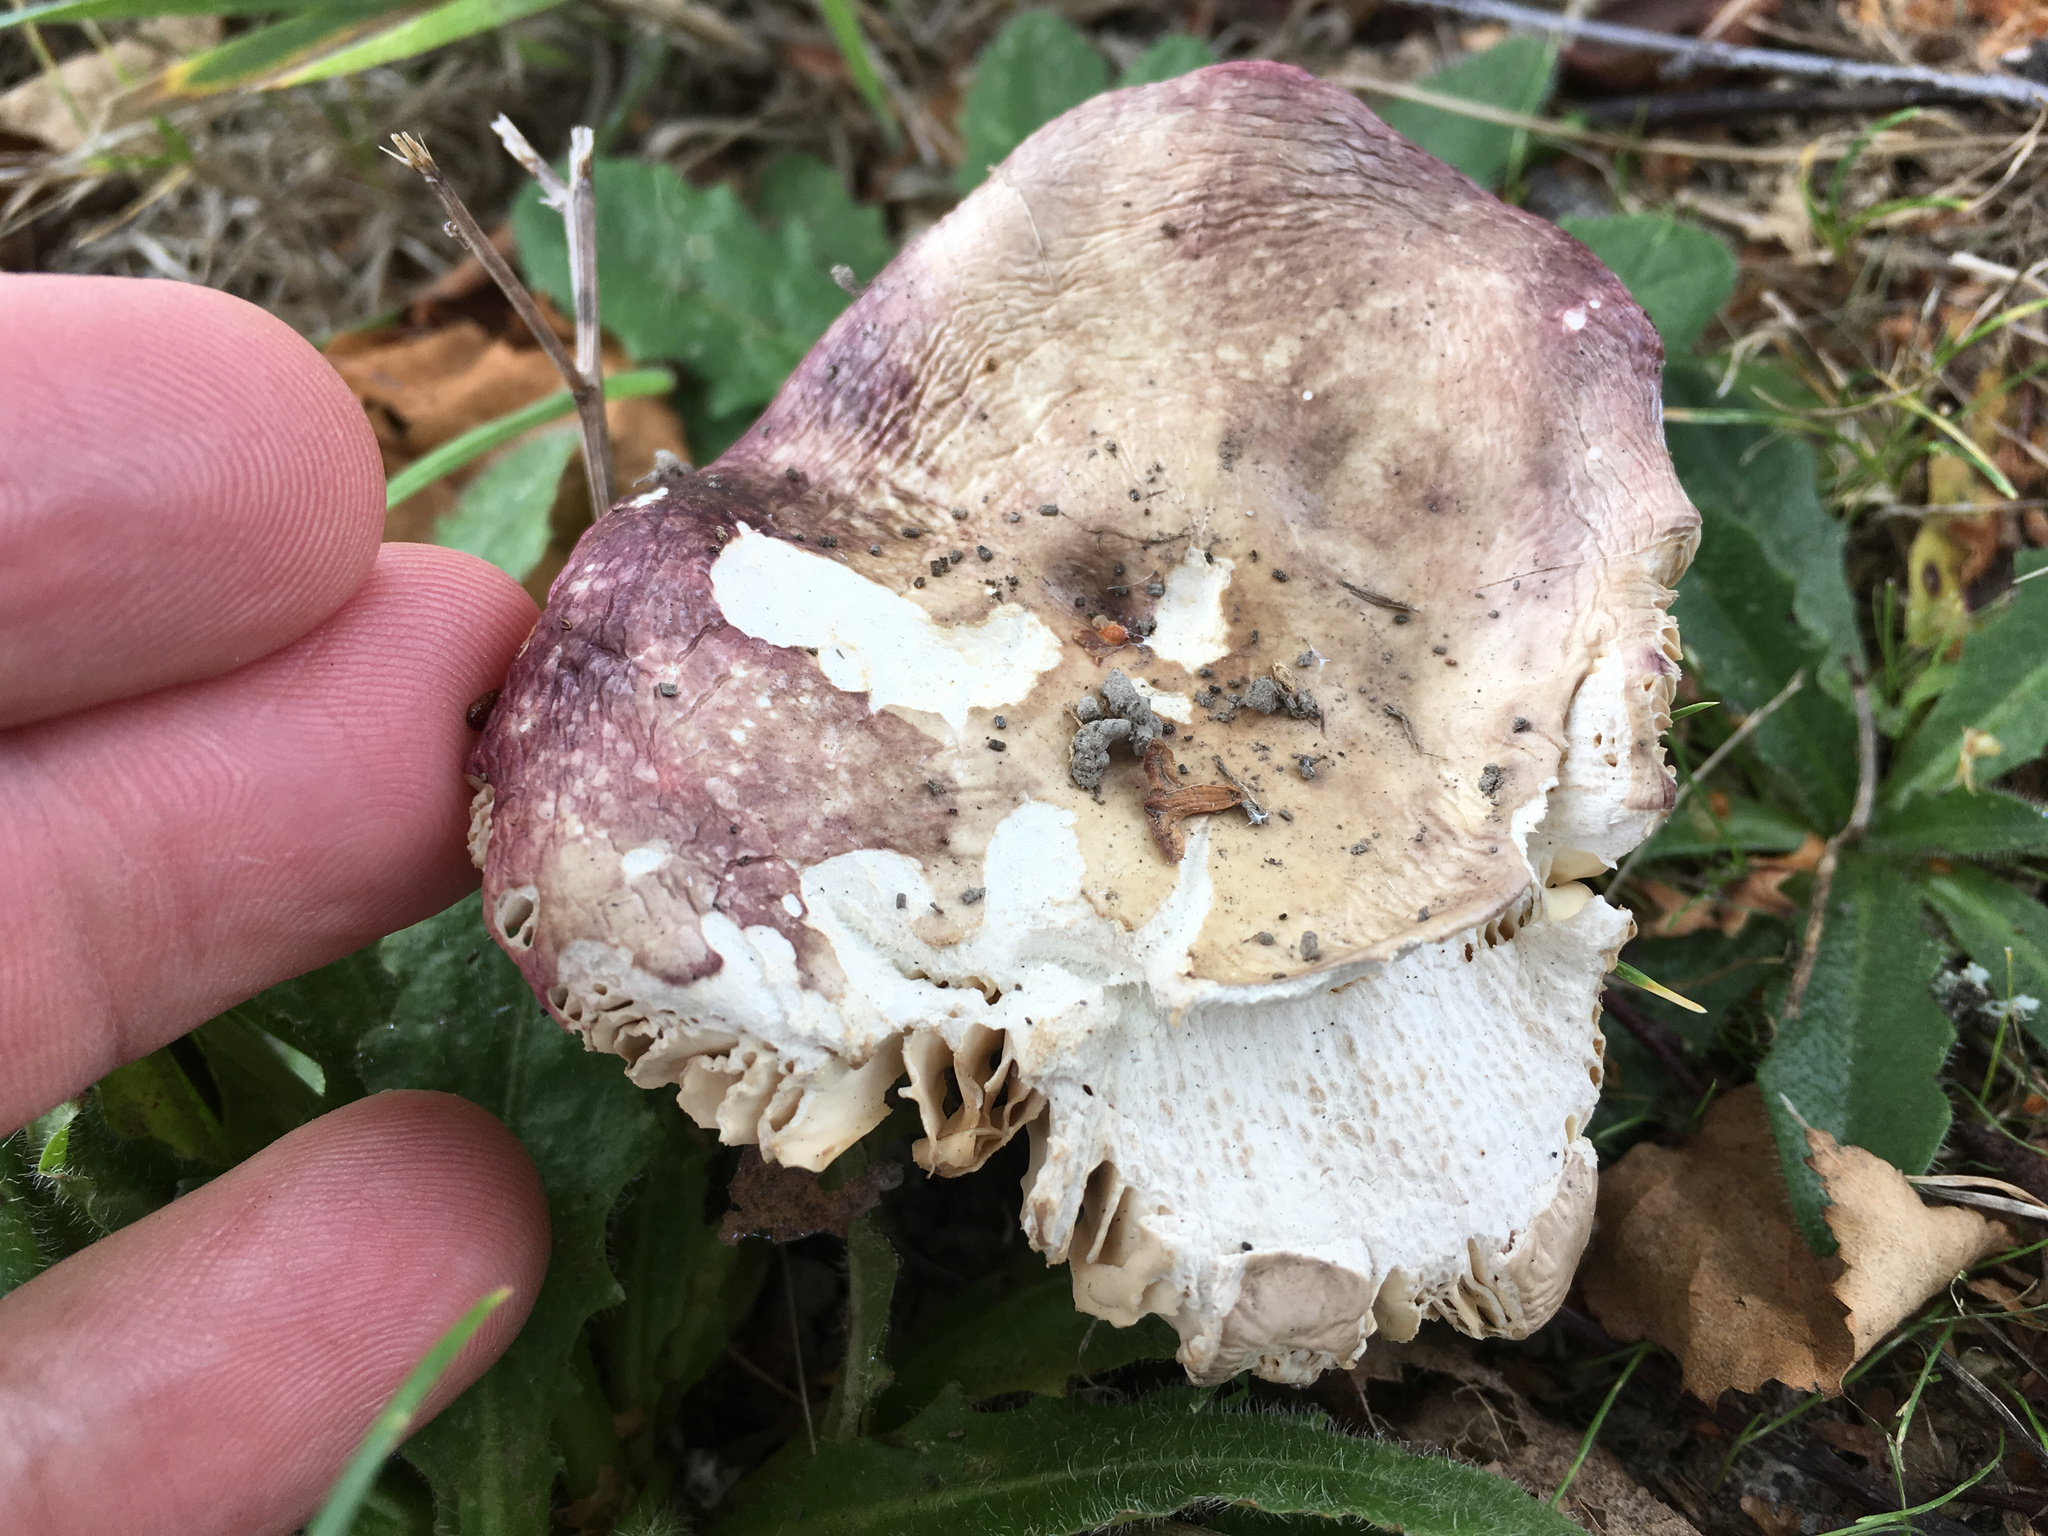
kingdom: Fungi
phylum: Basidiomycota
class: Agaricomycetes
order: Russulales
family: Russulaceae
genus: Russula
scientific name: Russula nitida
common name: Purple swamp brittlegill
